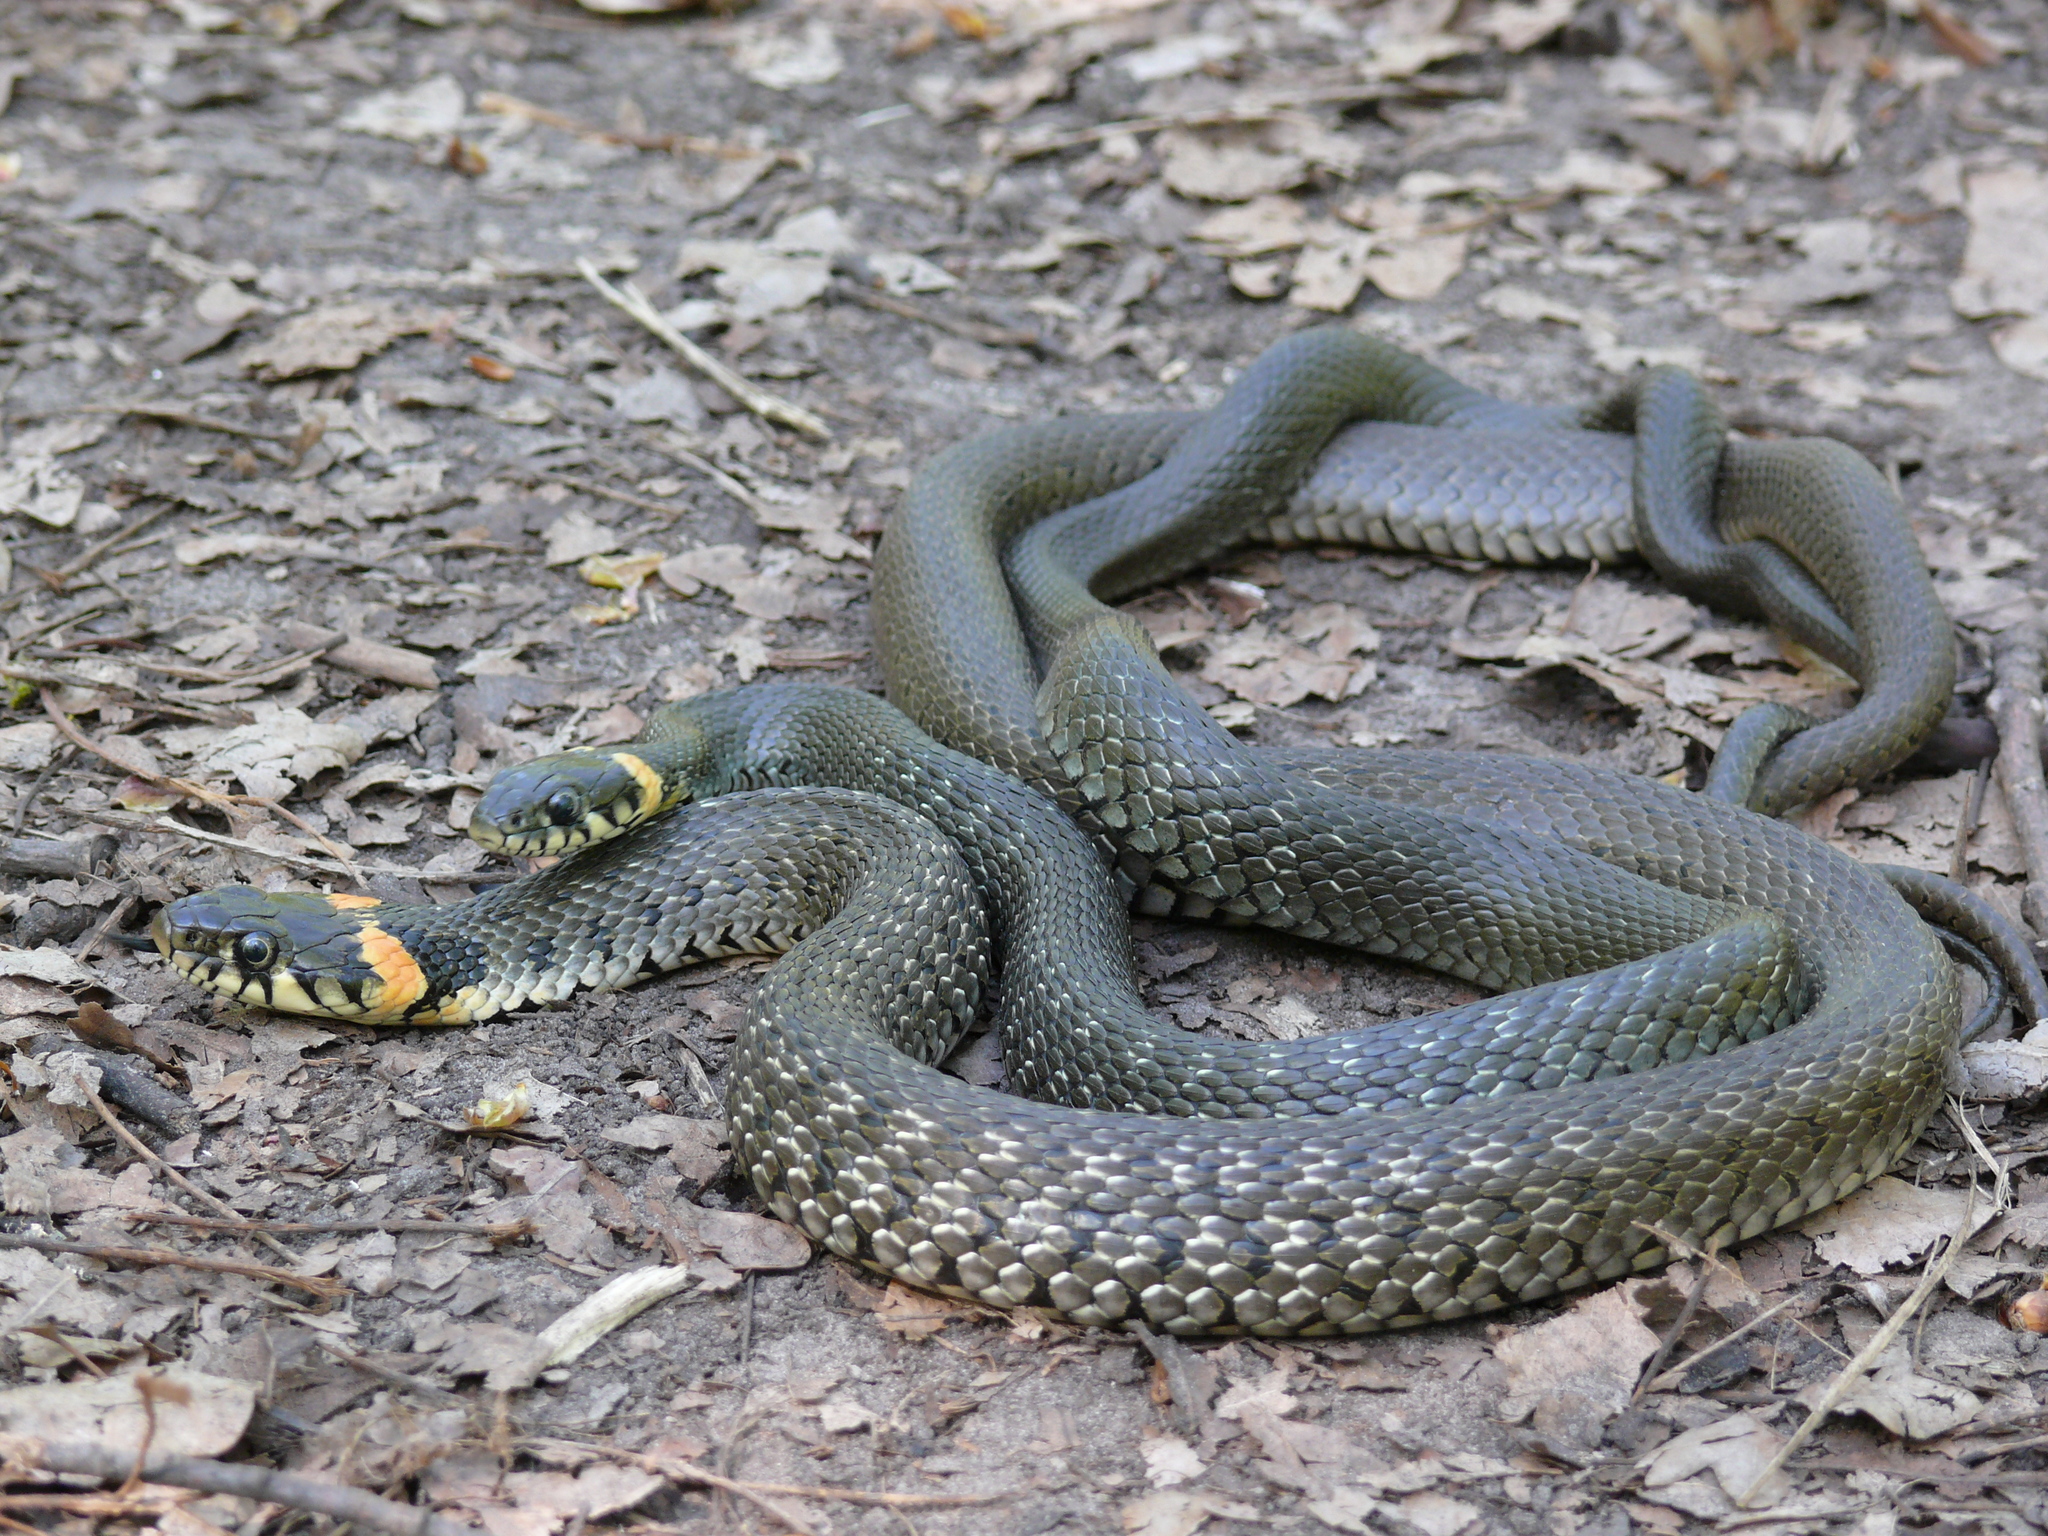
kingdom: Animalia
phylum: Chordata
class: Squamata
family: Colubridae
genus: Natrix
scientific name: Natrix natrix
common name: Grass snake
